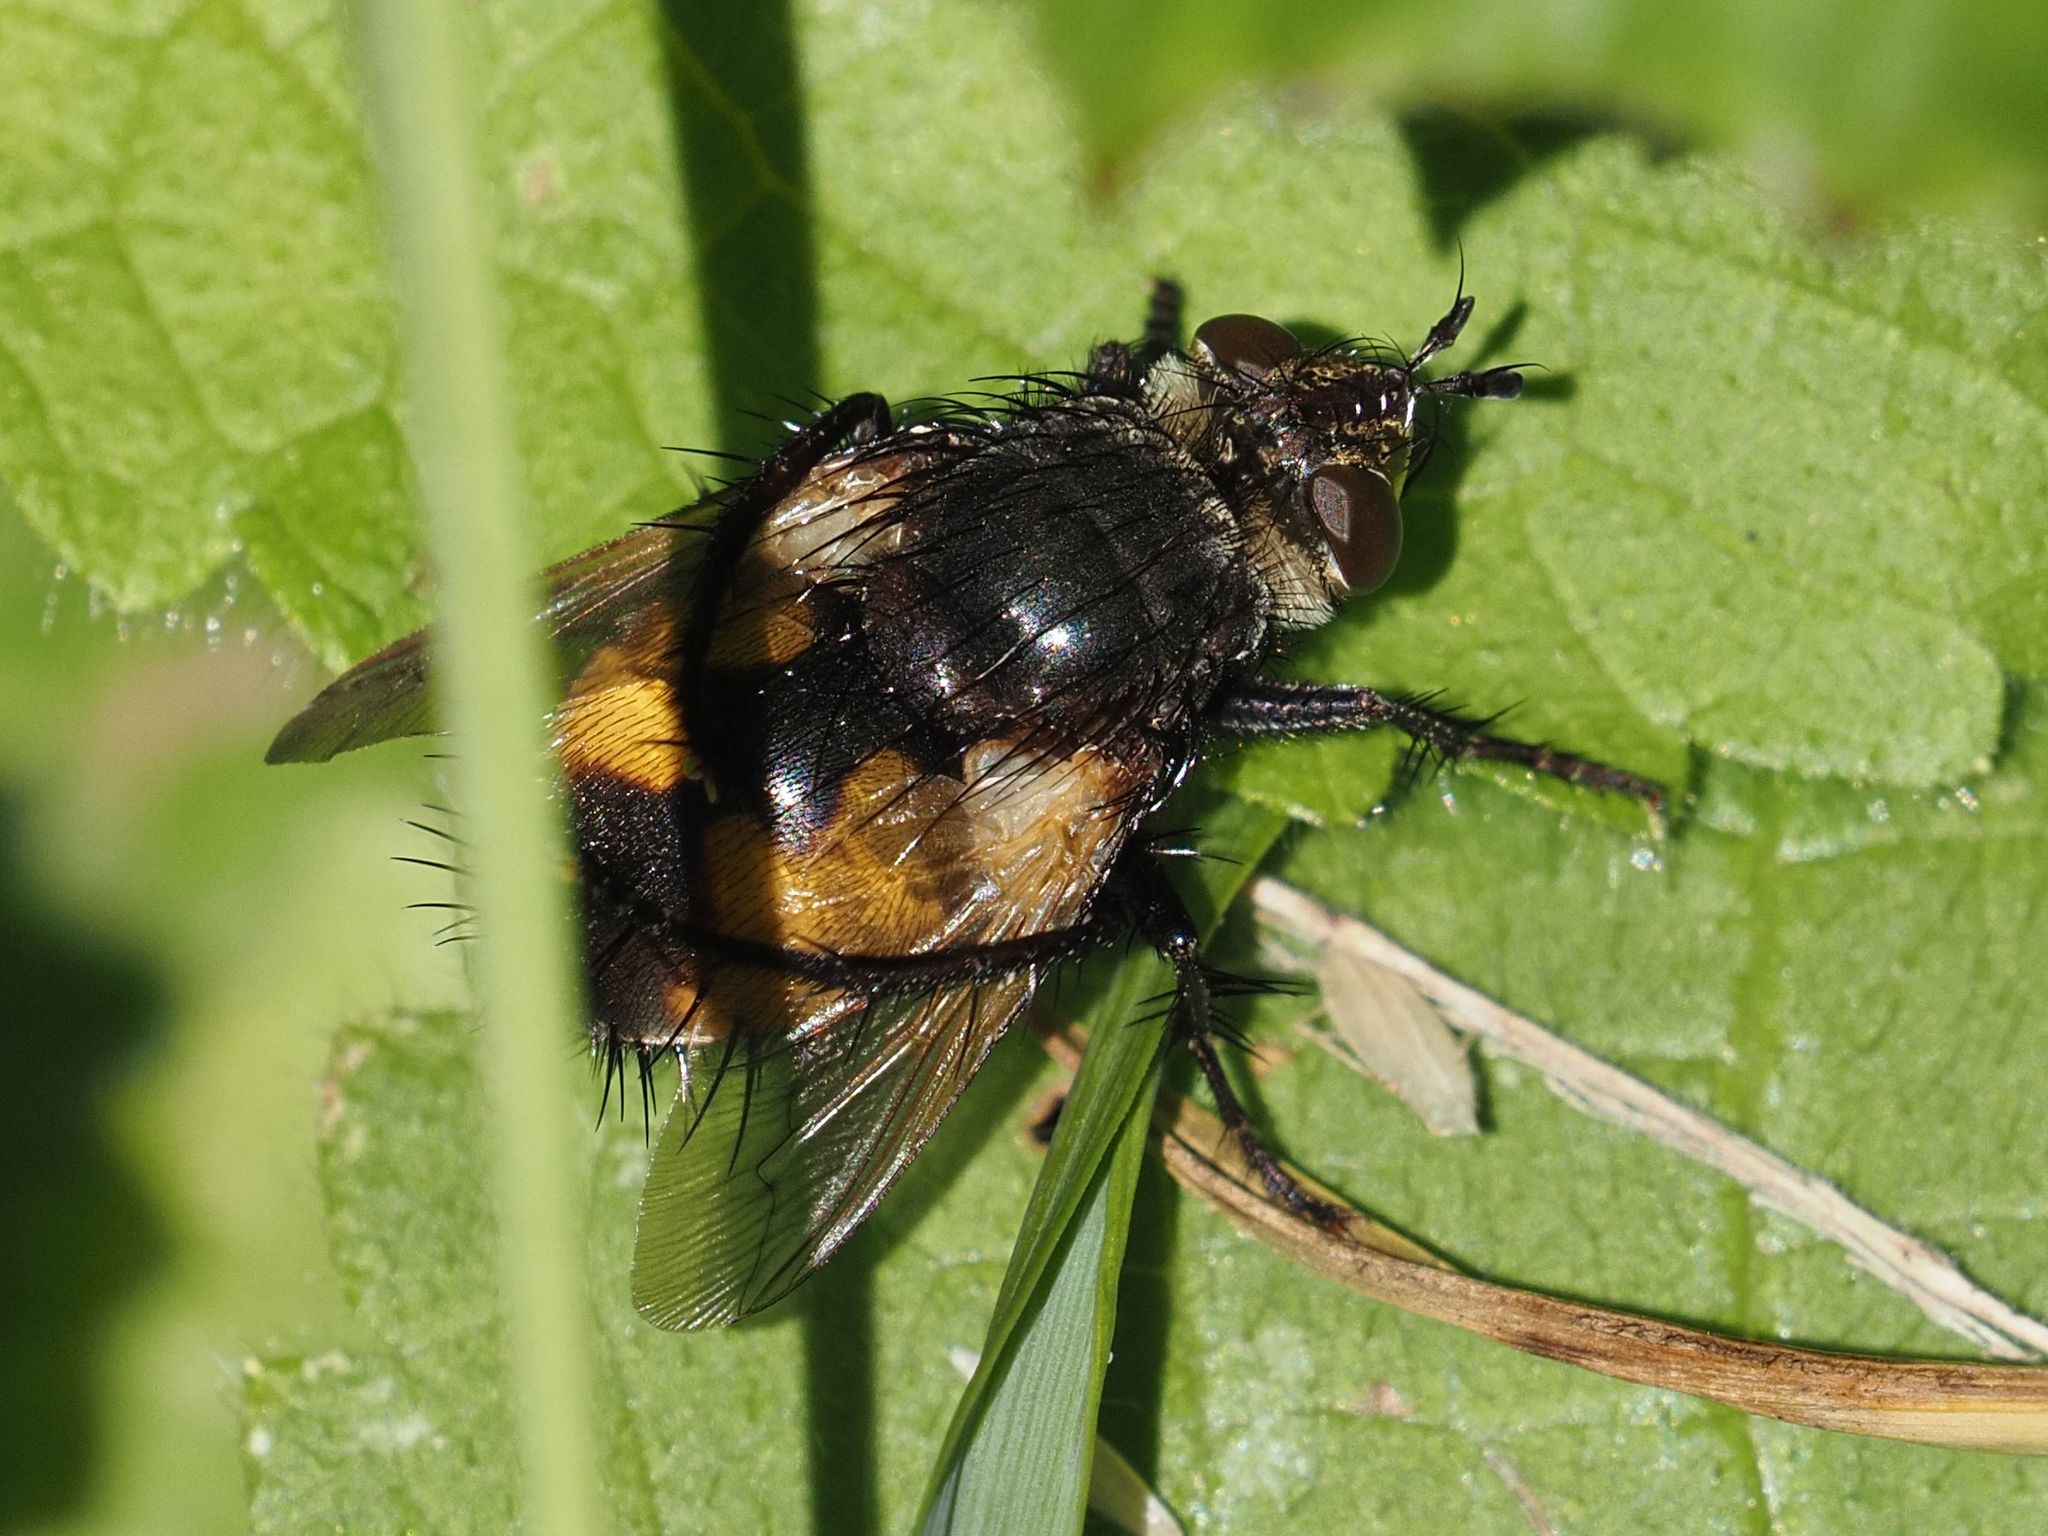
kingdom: Animalia
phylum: Arthropoda
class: Insecta
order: Diptera
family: Tachinidae
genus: Nowickia
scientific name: Nowickia ferox
